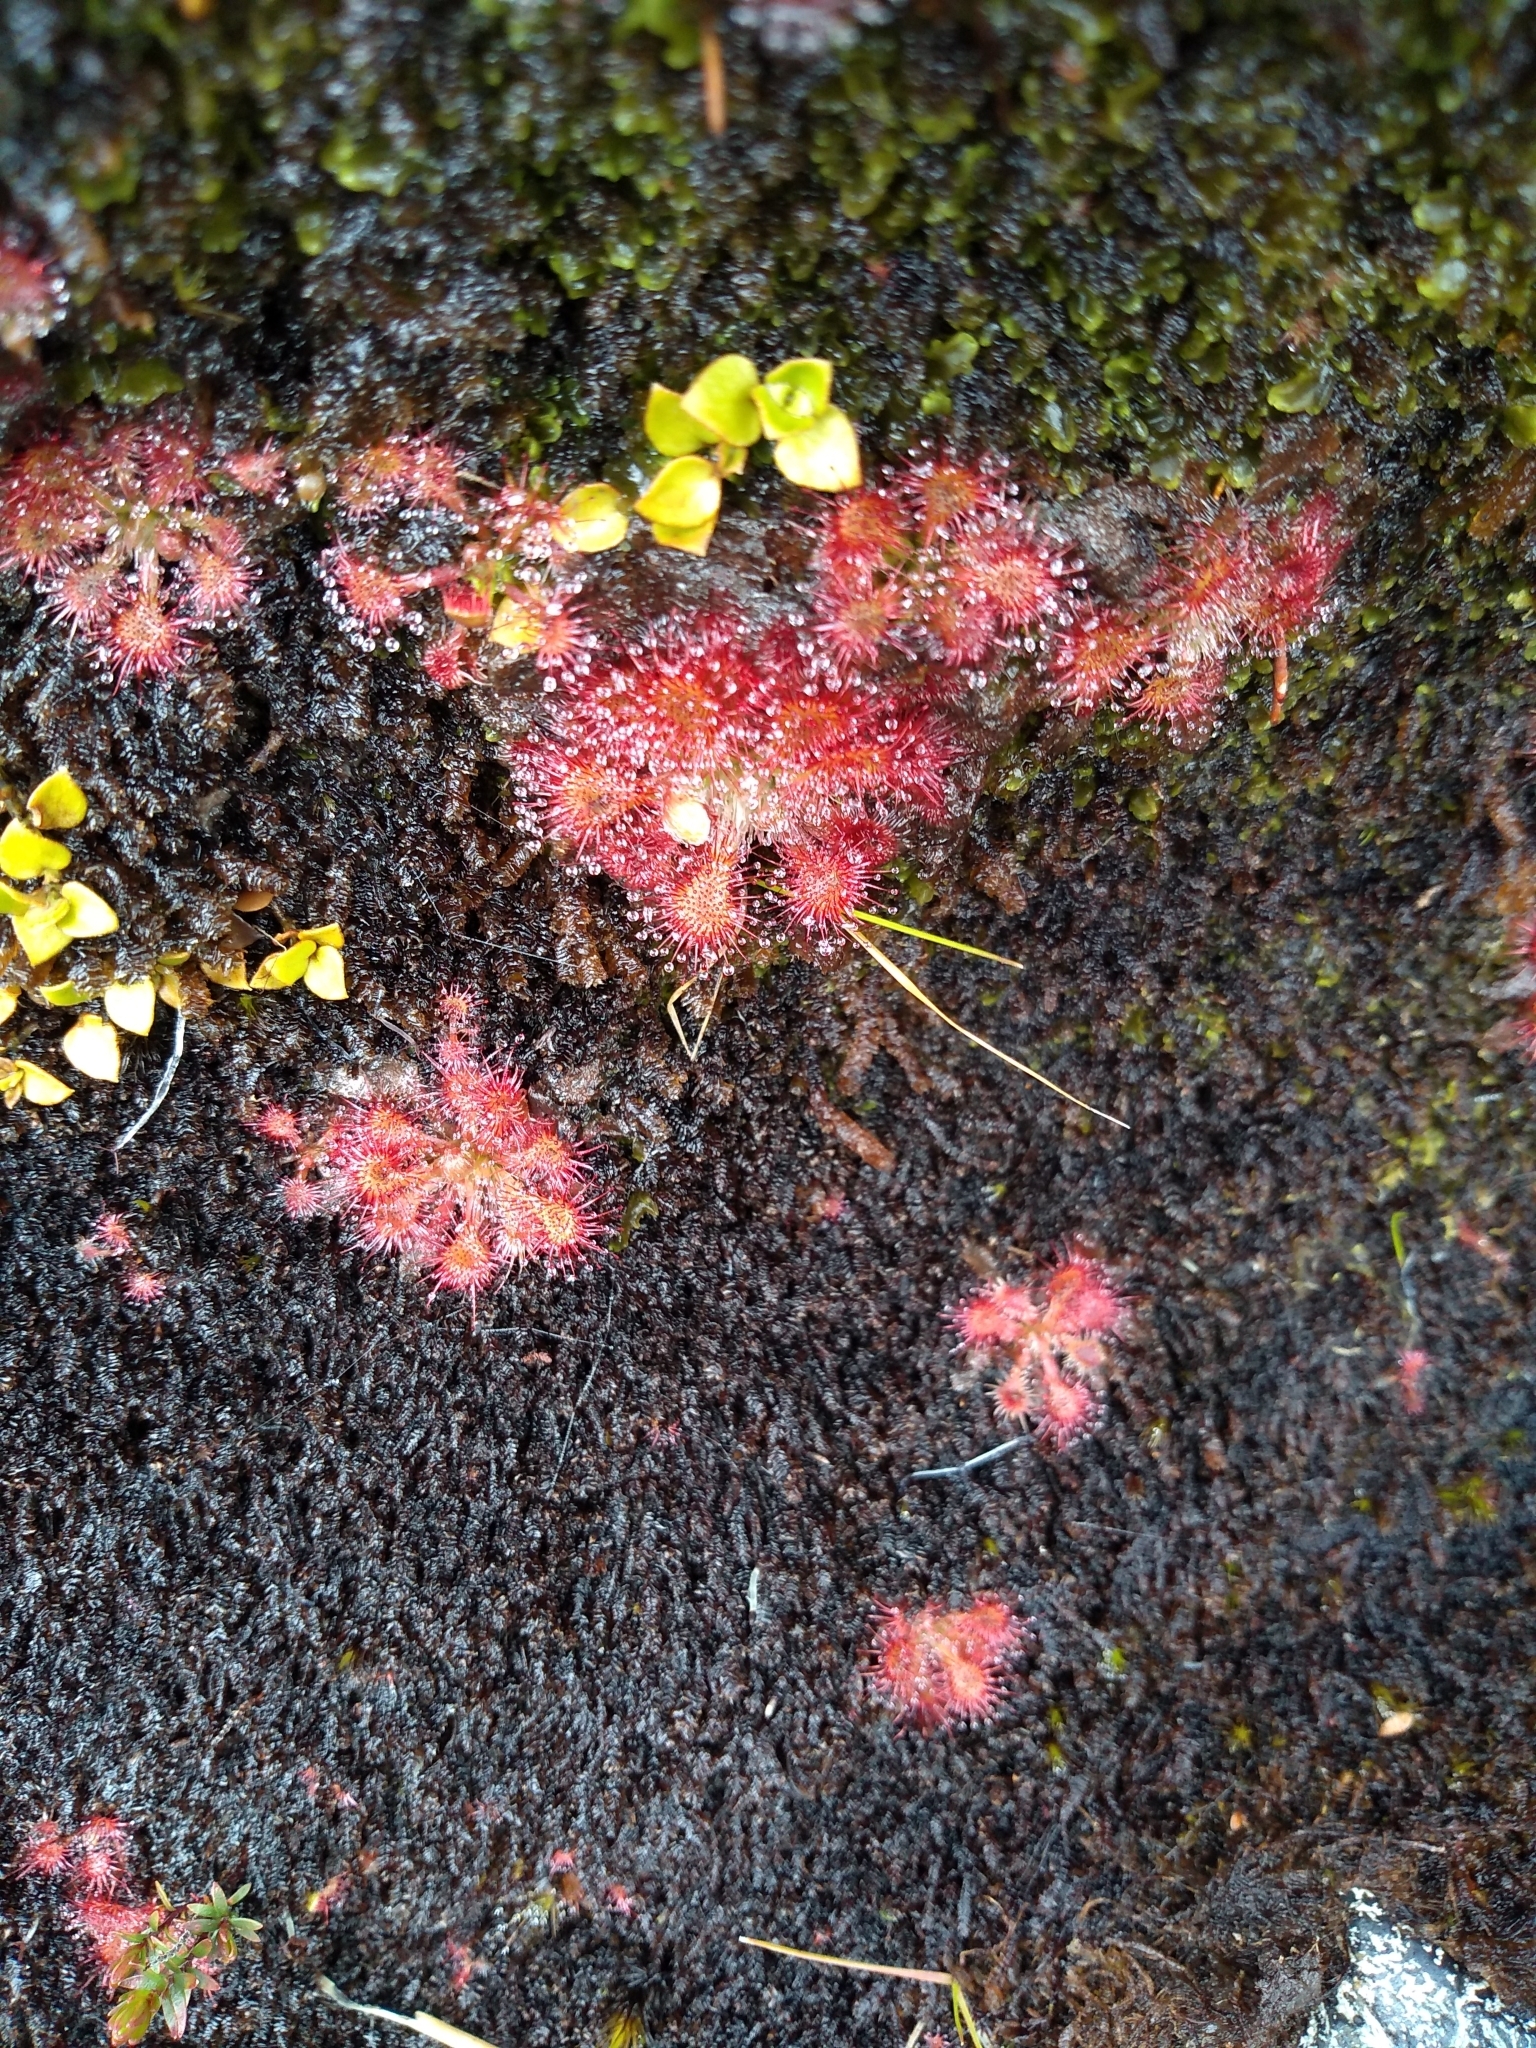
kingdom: Plantae
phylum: Tracheophyta
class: Magnoliopsida
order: Caryophyllales
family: Droseraceae
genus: Drosera
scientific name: Drosera spatulata
